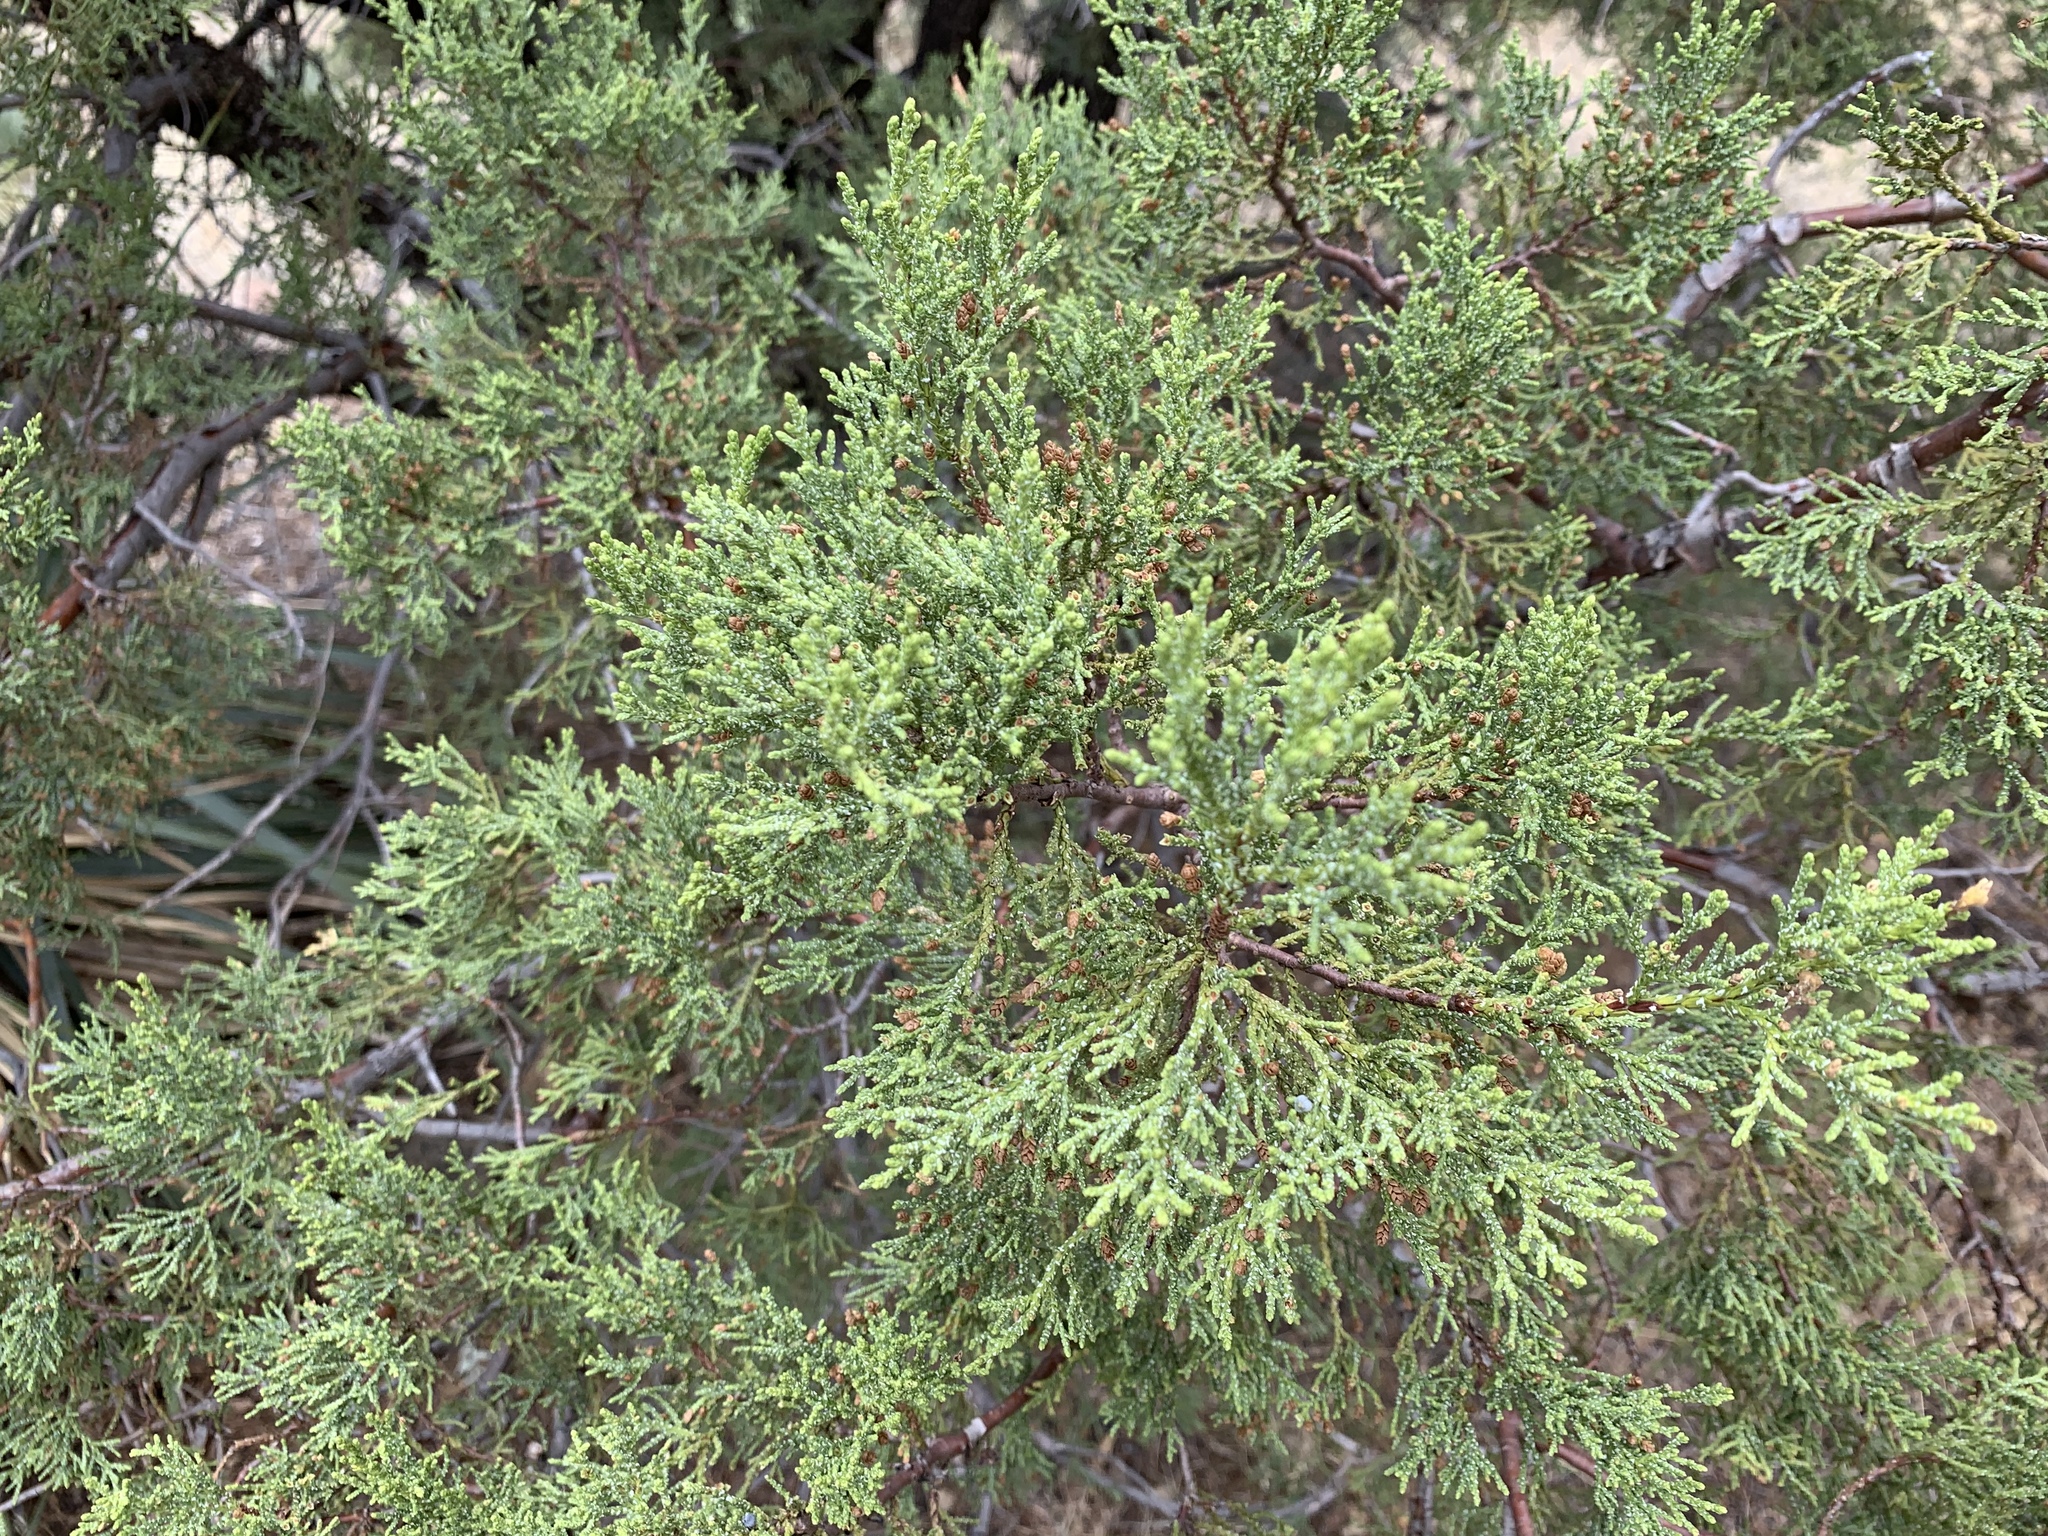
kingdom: Plantae
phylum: Tracheophyta
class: Pinopsida
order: Pinales
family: Cupressaceae
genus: Juniperus
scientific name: Juniperus deppeana
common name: Alligator juniper
